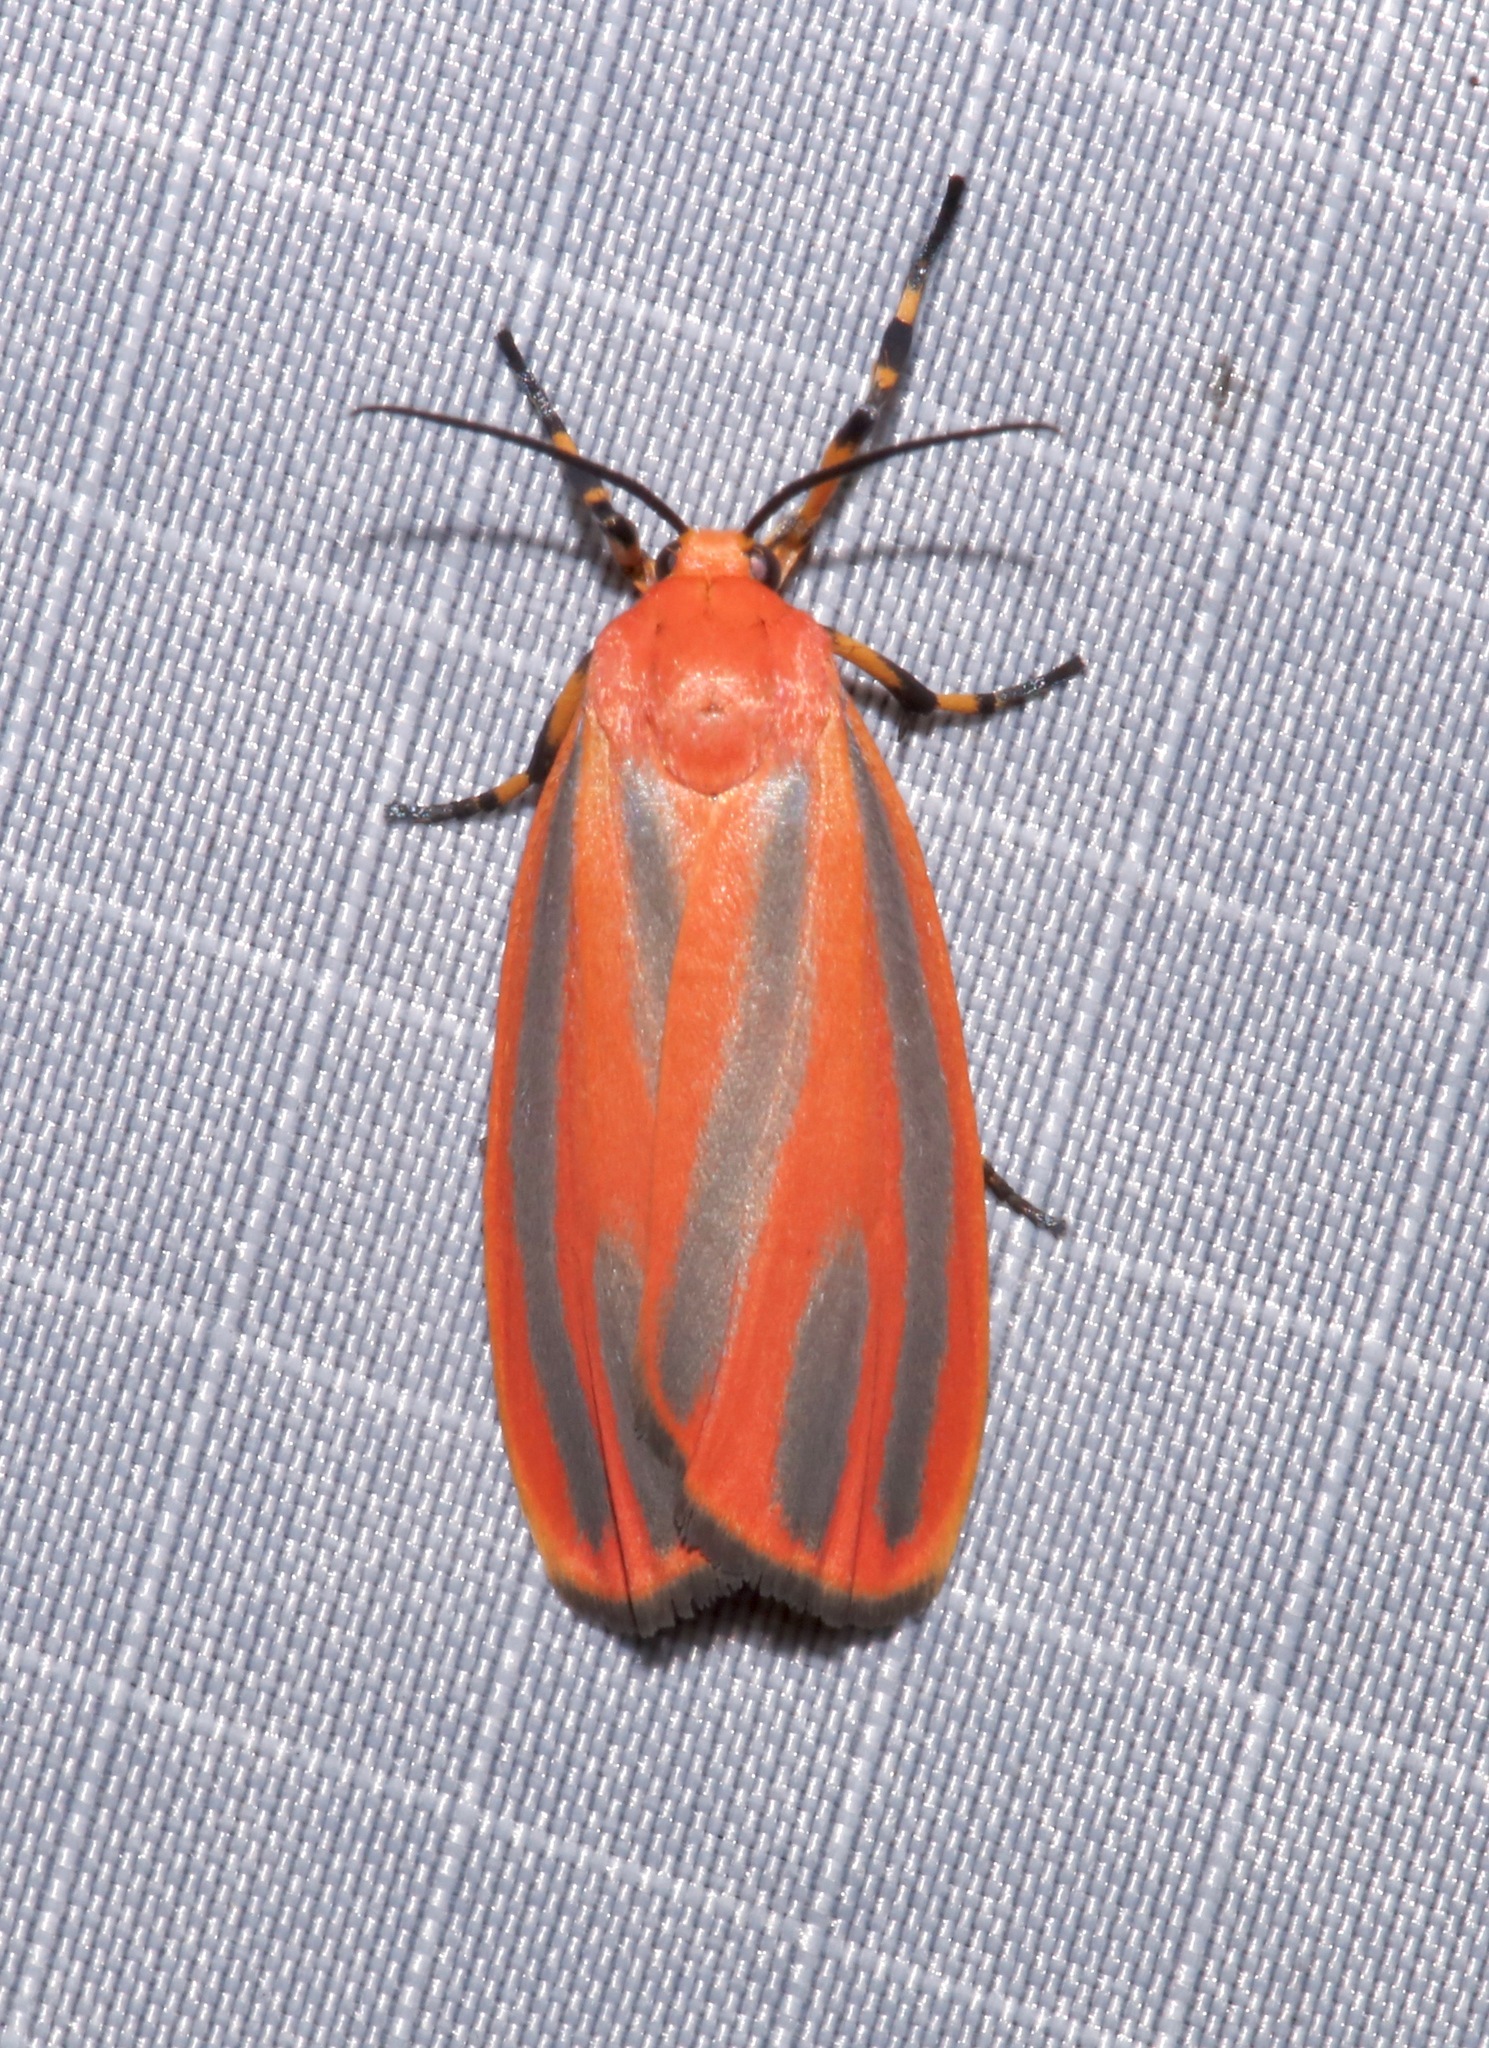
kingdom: Animalia
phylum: Arthropoda
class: Insecta
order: Lepidoptera
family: Erebidae
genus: Hypoprepia
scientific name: Hypoprepia miniata
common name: Scarlet-winged lichen moth
